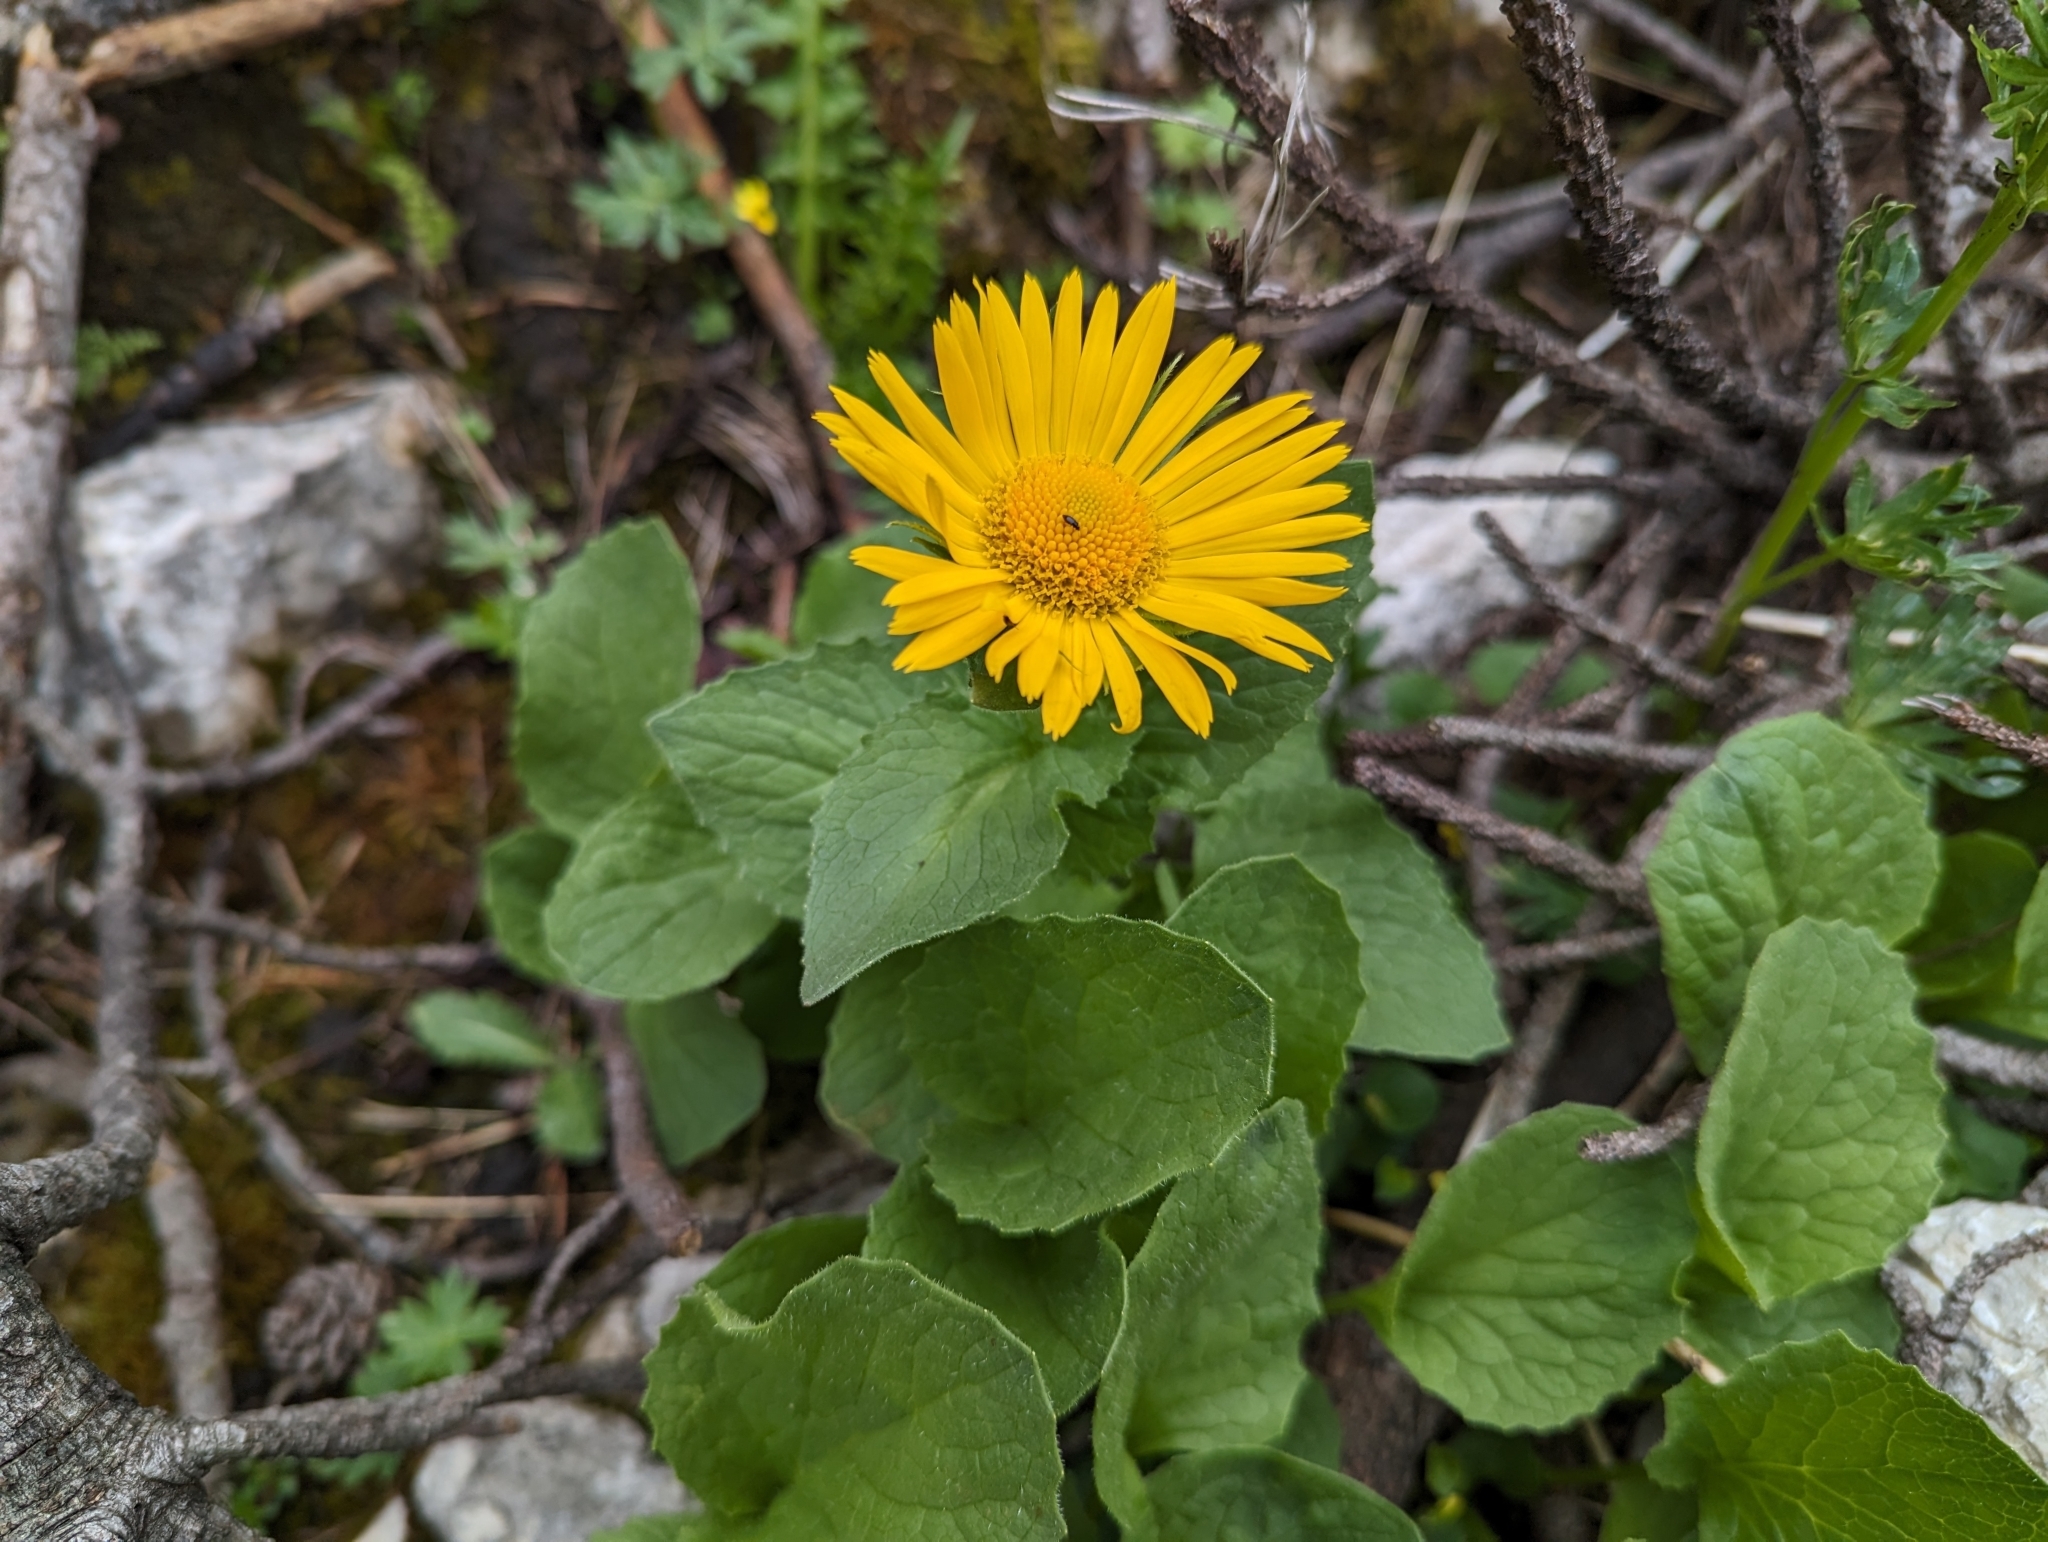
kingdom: Plantae
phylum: Tracheophyta
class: Magnoliopsida
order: Asterales
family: Asteraceae
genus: Doronicum
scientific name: Doronicum grandiflorum
